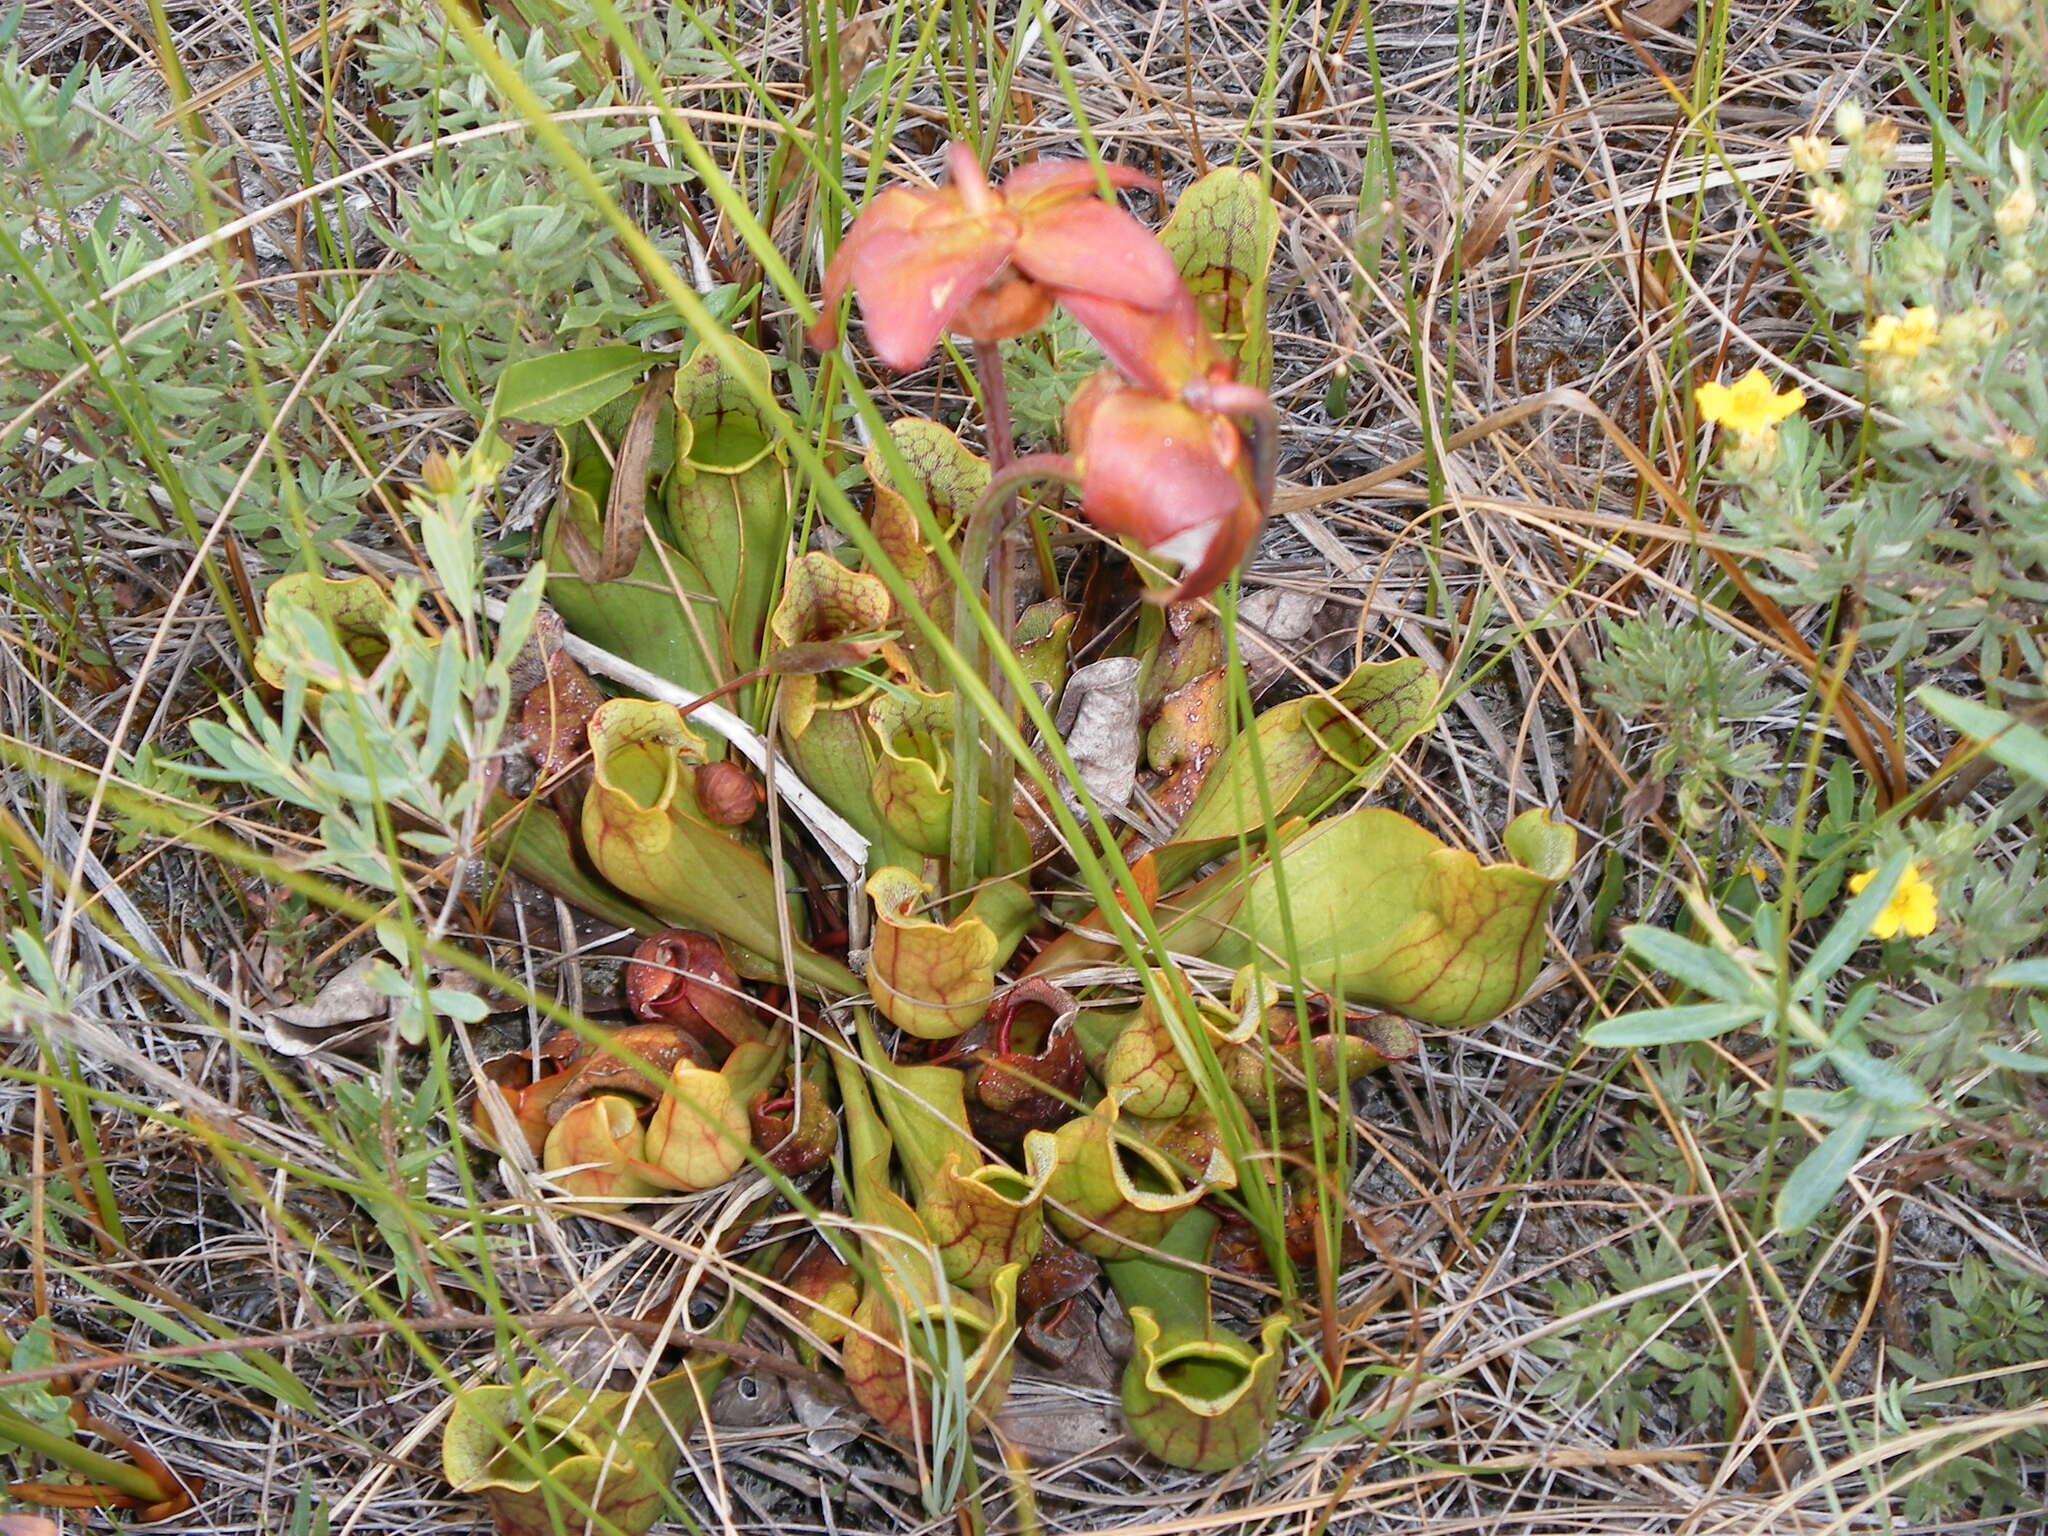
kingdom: Plantae
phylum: Tracheophyta
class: Magnoliopsida
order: Ericales
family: Sarraceniaceae
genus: Sarracenia
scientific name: Sarracenia purpurea
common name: Pitcherplant
